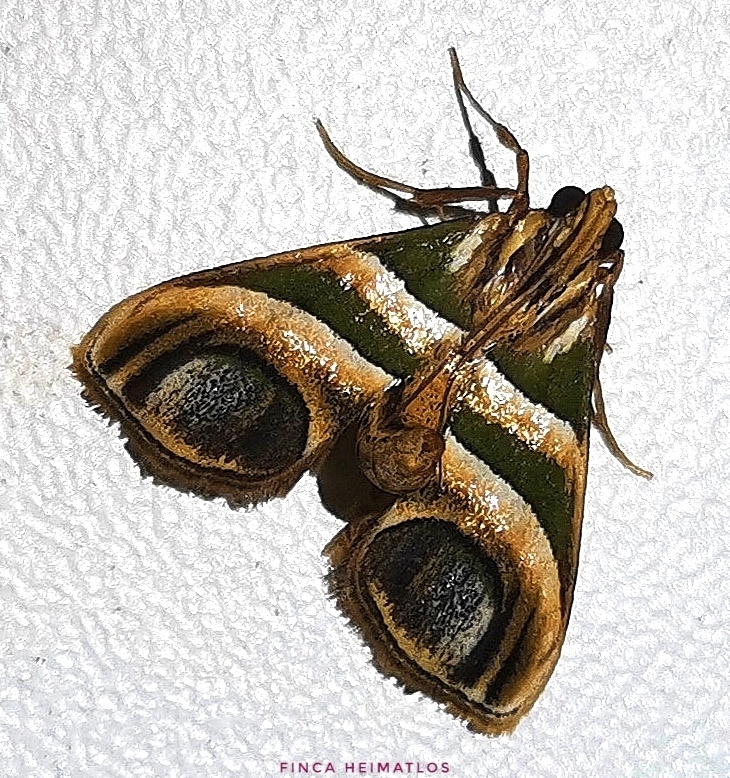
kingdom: Animalia
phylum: Arthropoda
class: Insecta
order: Lepidoptera
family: Pyralidae
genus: Incarcha
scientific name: Incarcha argentilinea
